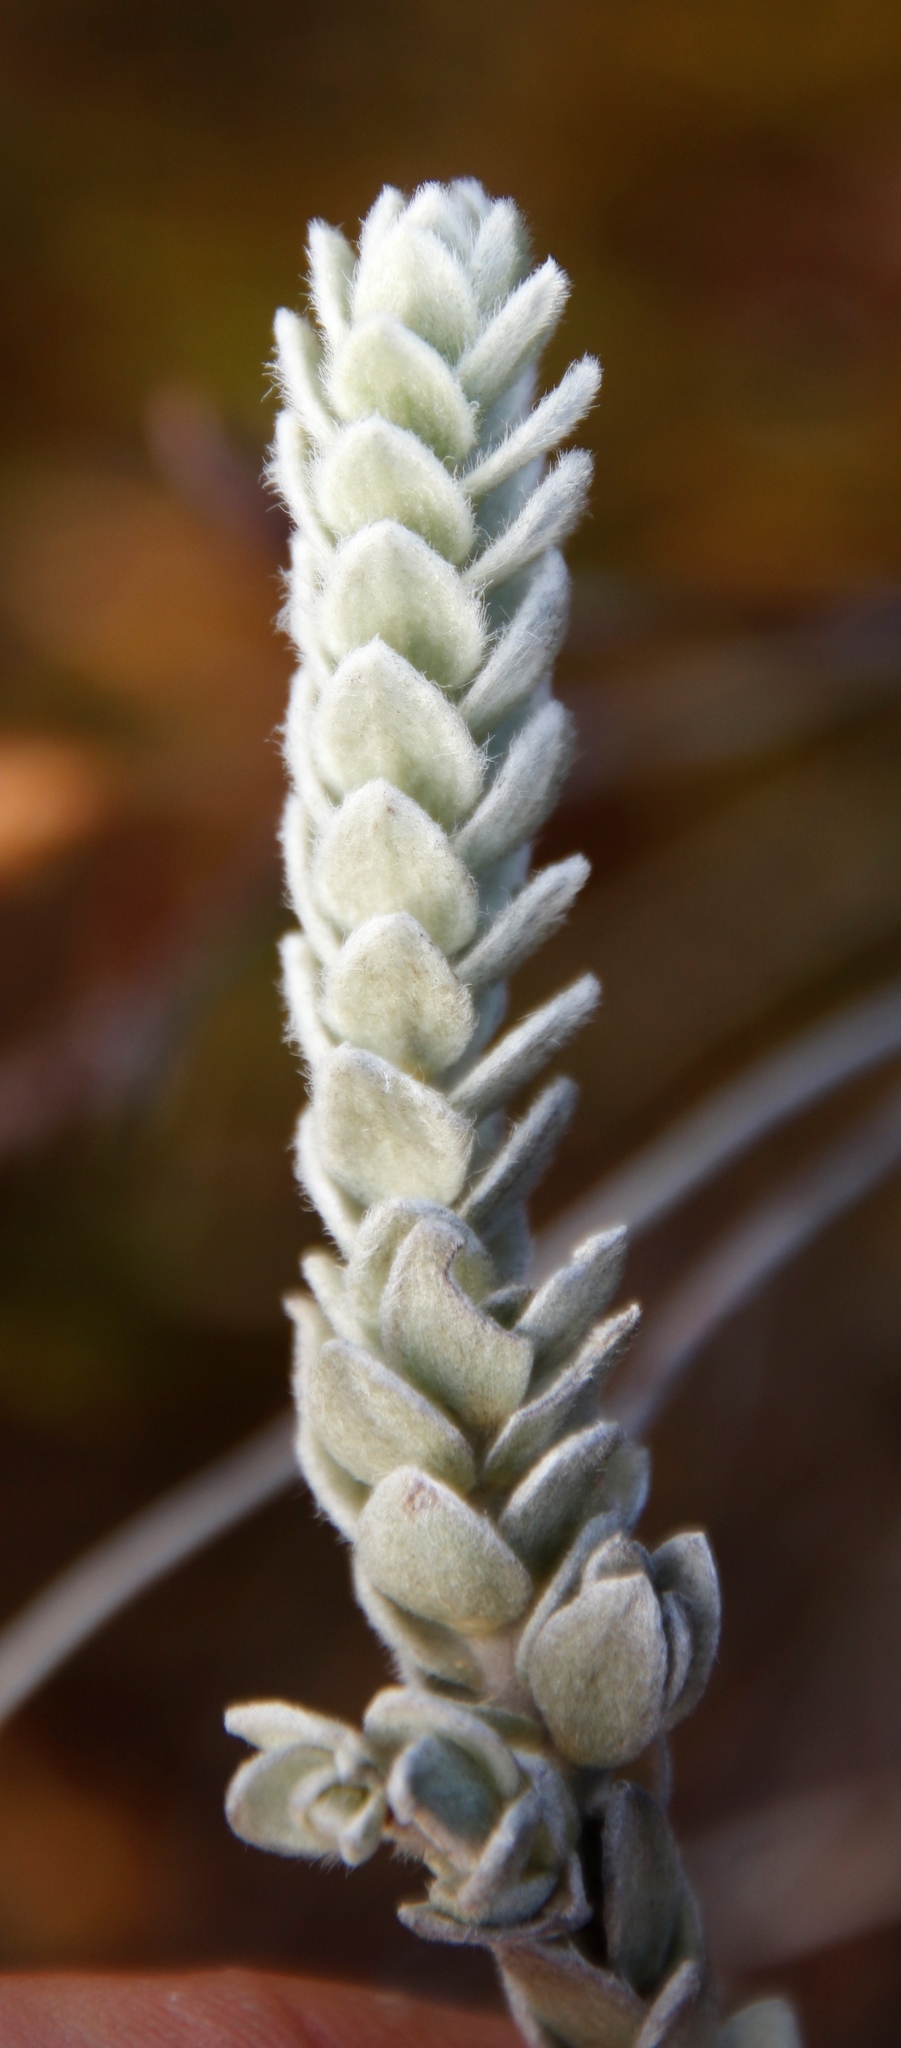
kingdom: Plantae
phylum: Tracheophyta
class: Magnoliopsida
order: Malvales
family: Thymelaeaceae
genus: Gnidia
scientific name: Gnidia imbricata
